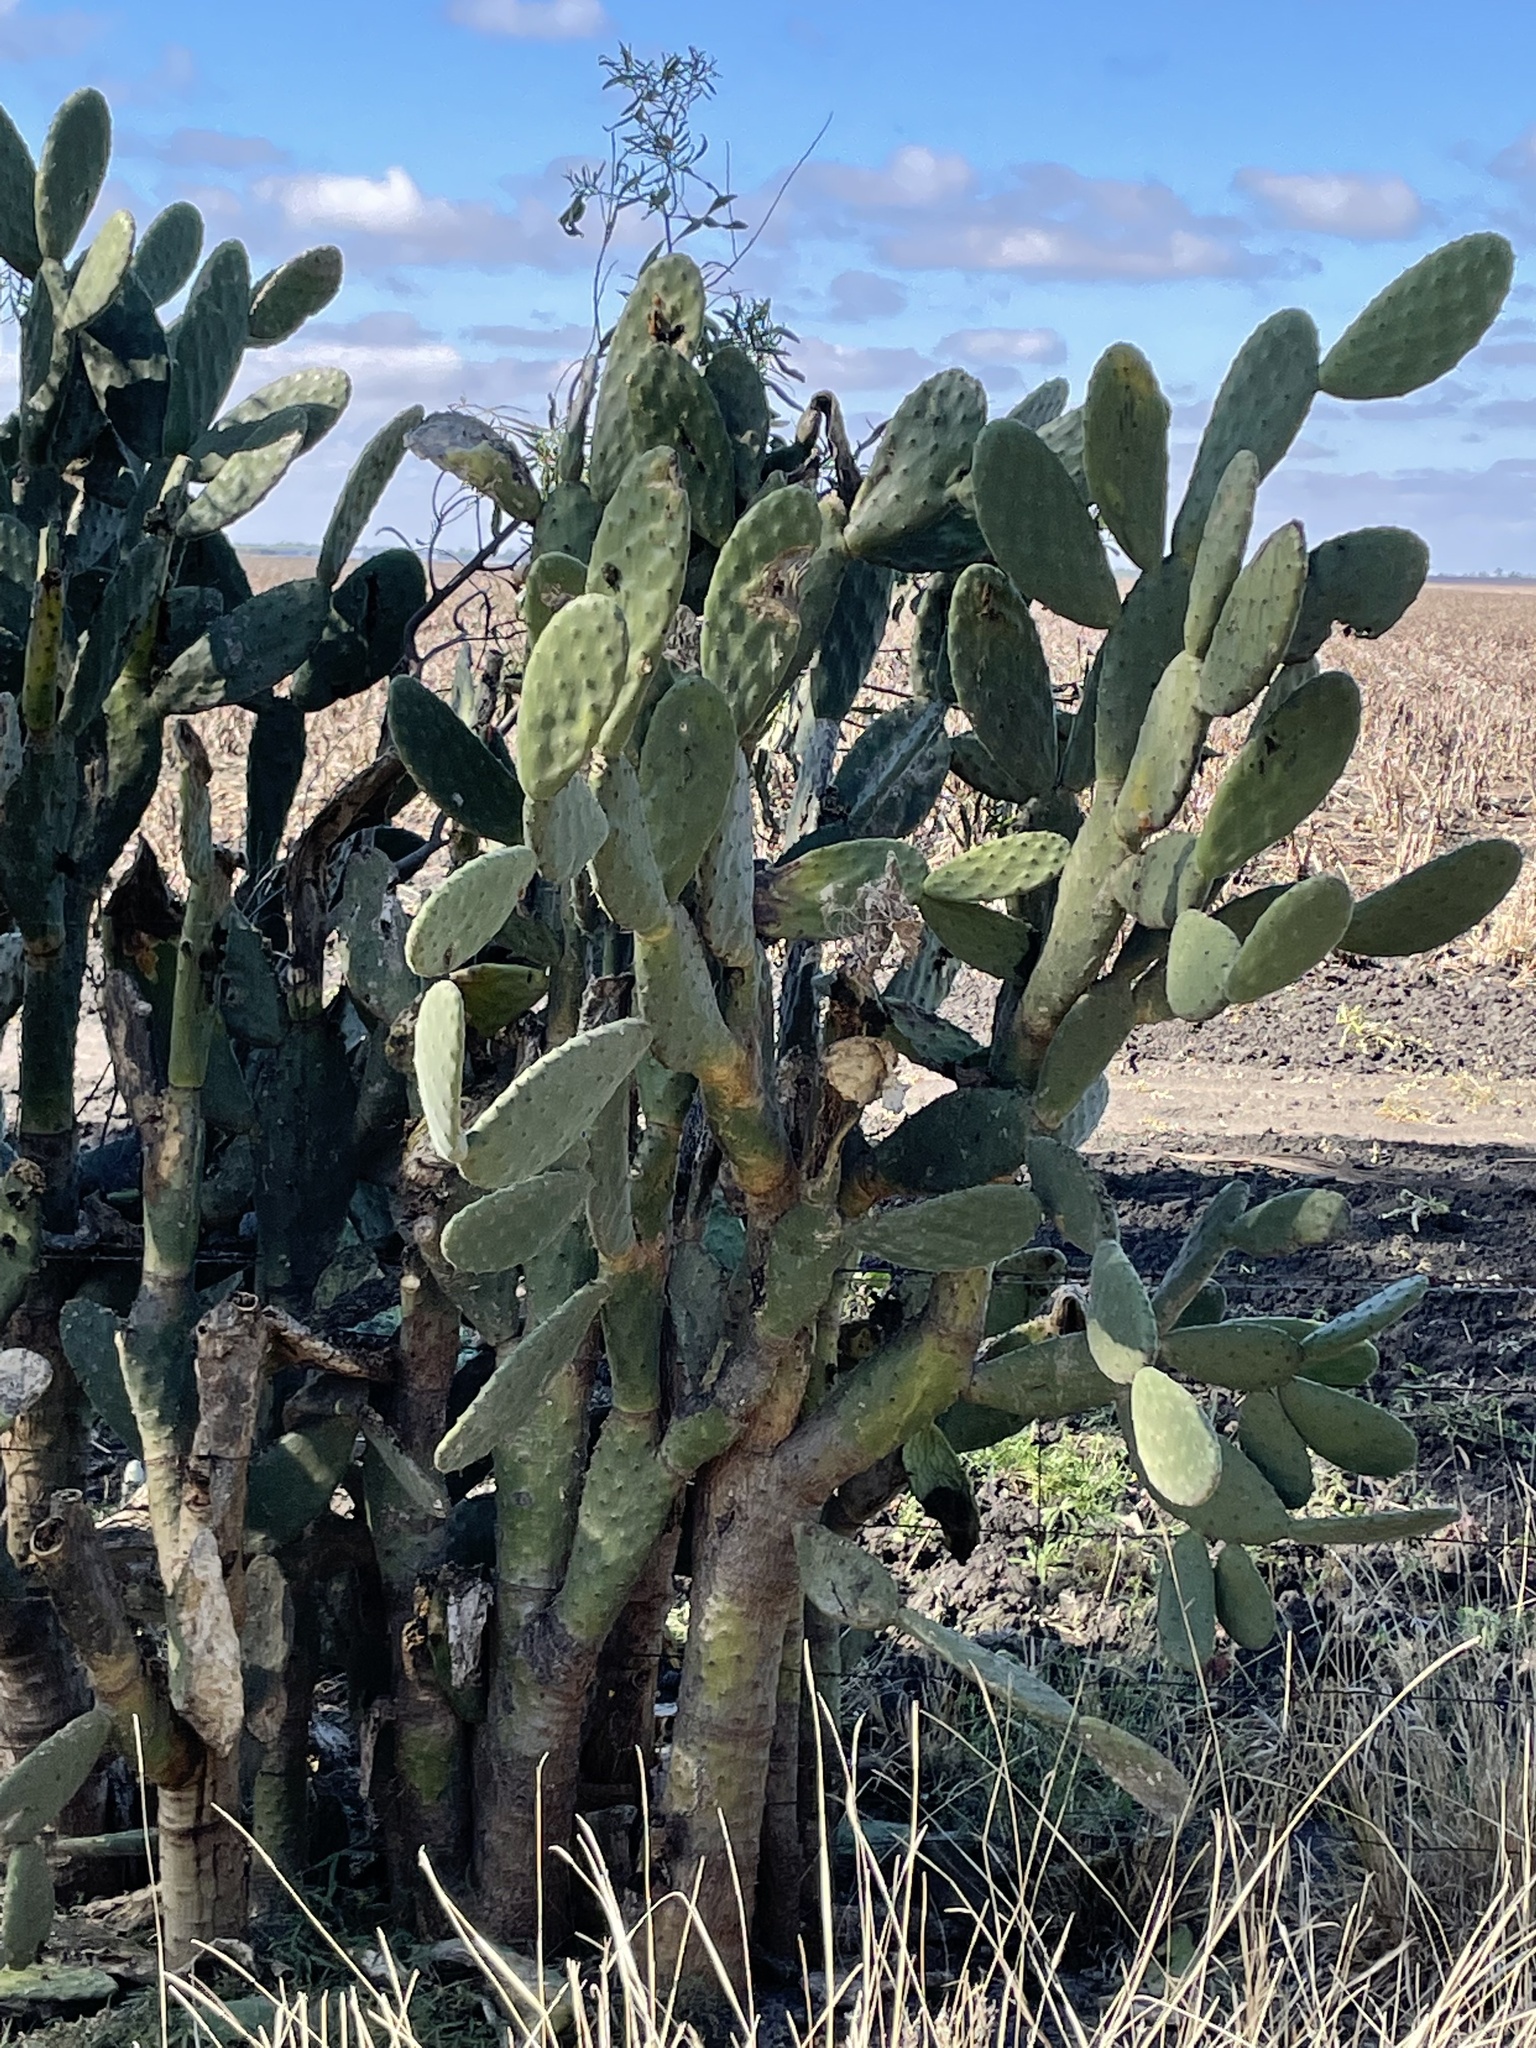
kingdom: Plantae
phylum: Tracheophyta
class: Magnoliopsida
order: Caryophyllales
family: Cactaceae
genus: Opuntia
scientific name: Opuntia tomentosa
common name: Woollyjoint pricklypear
